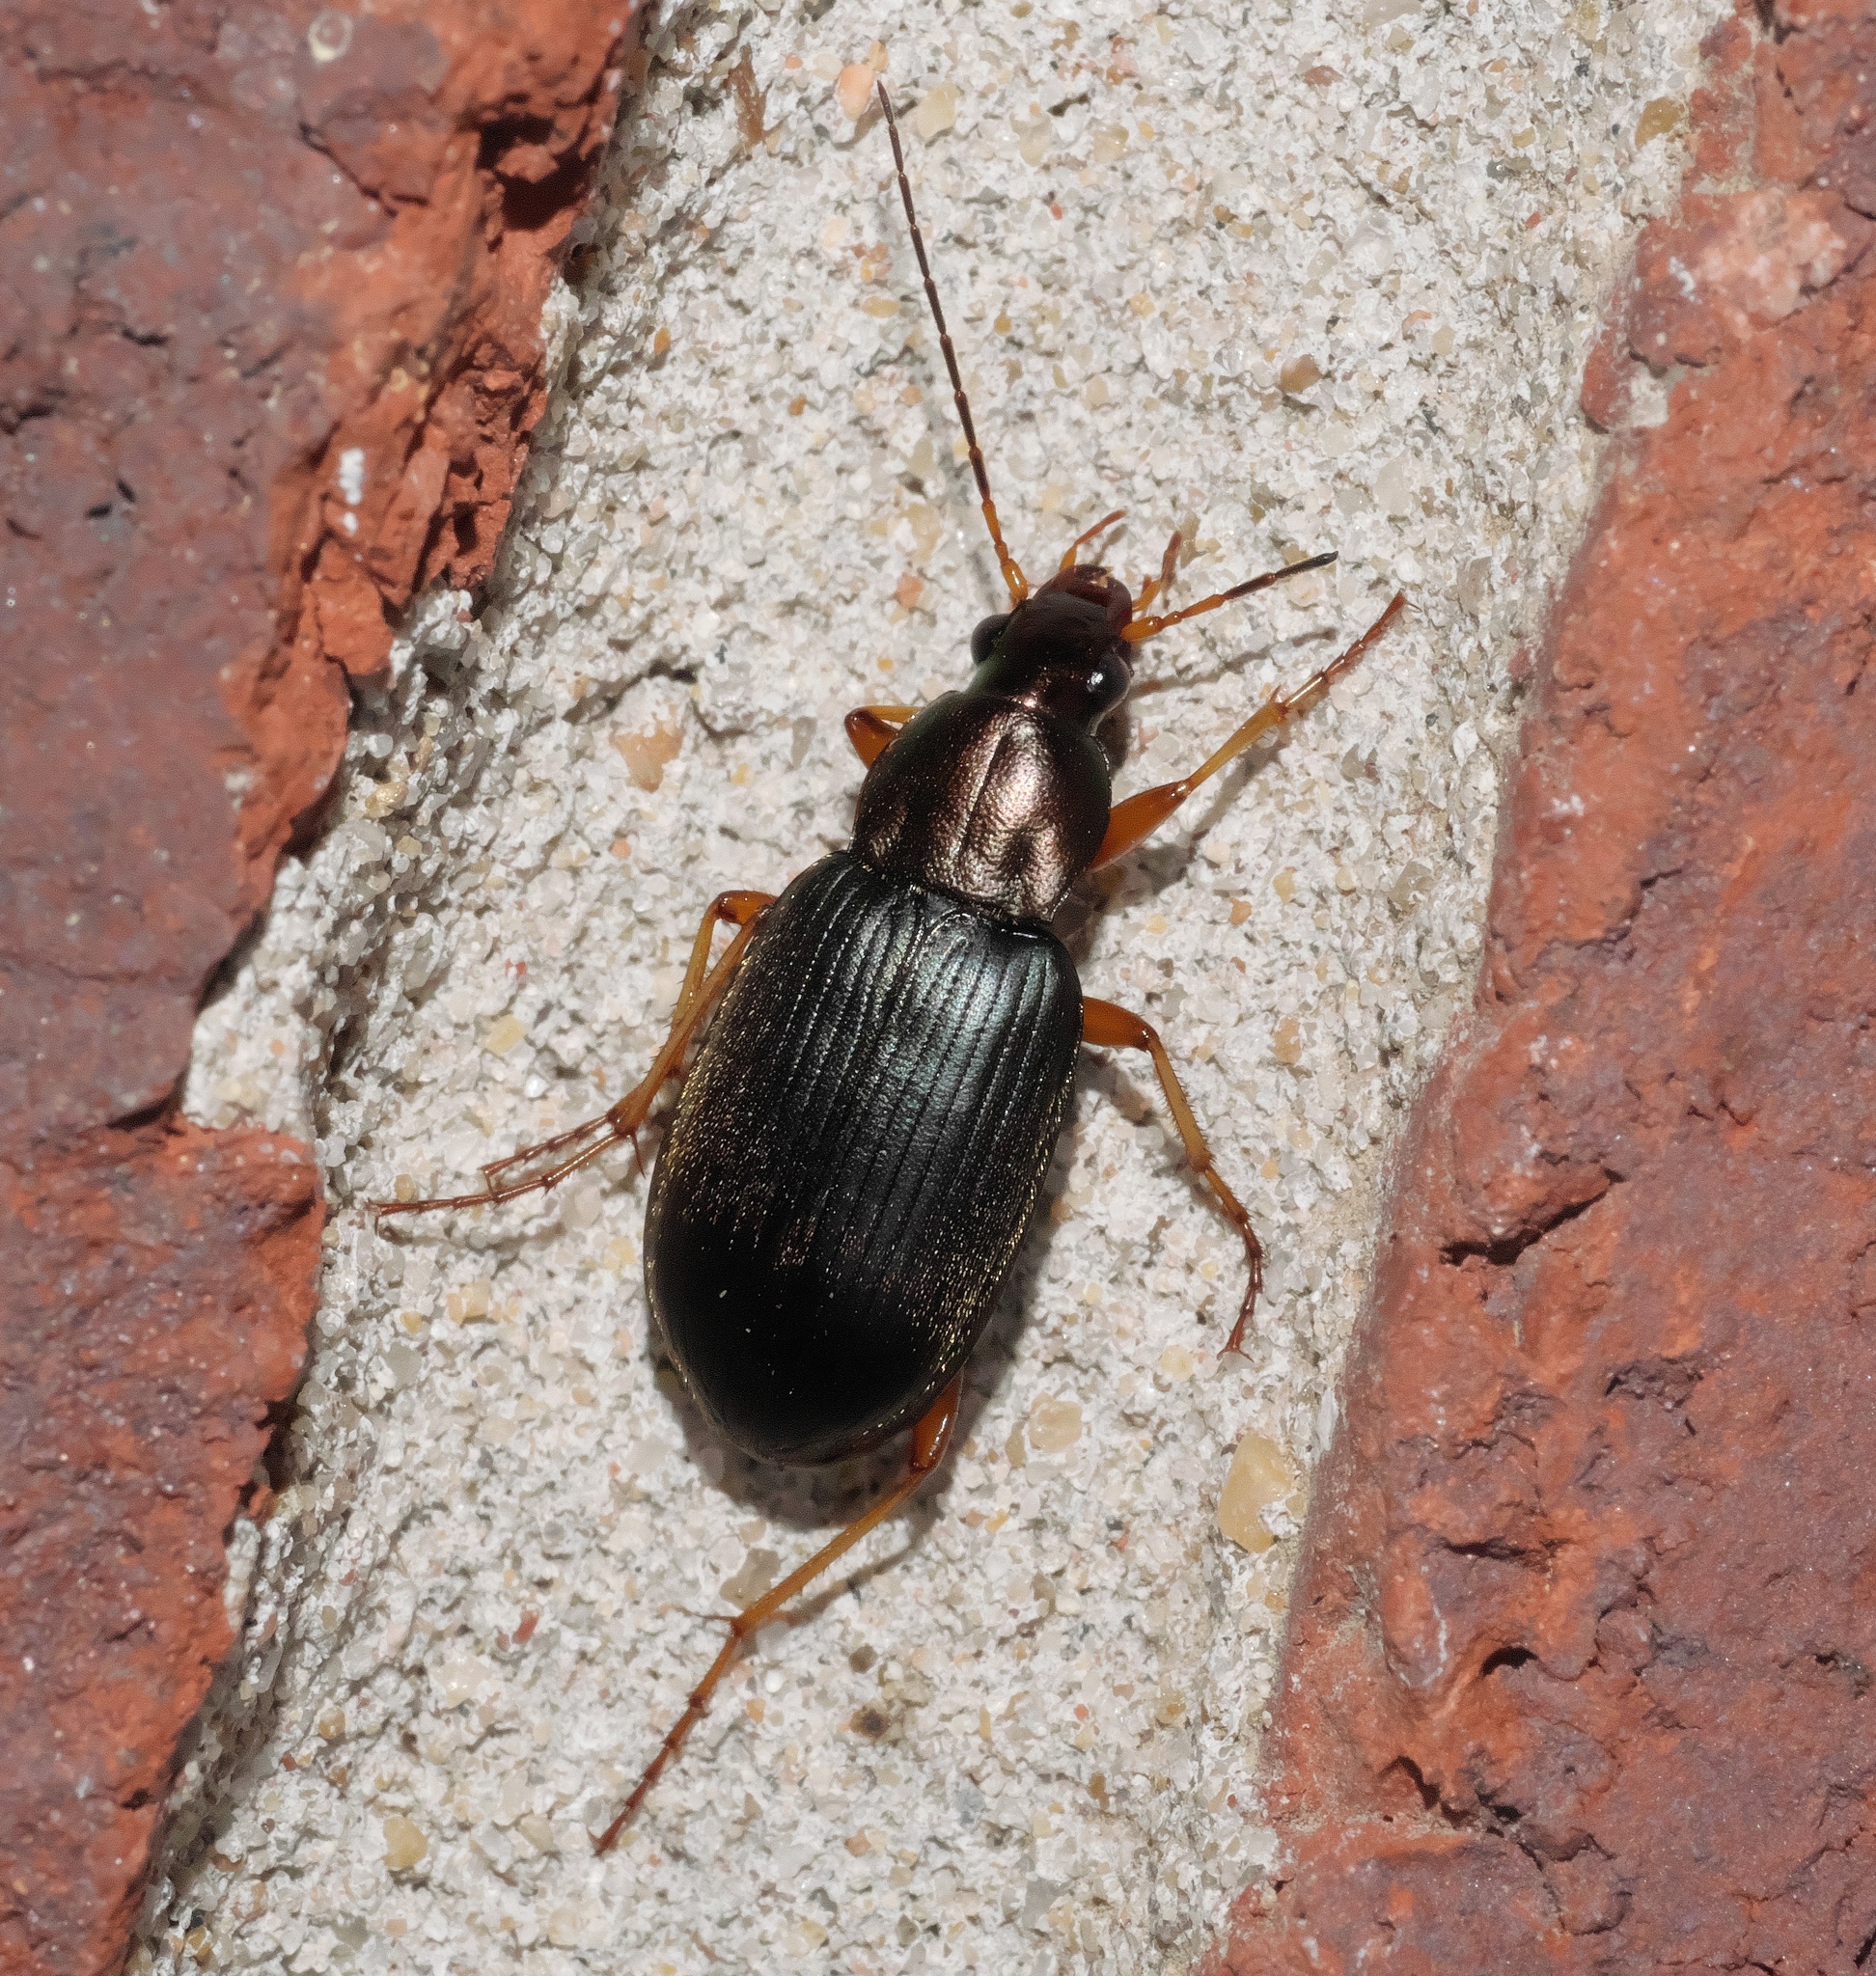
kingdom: Animalia
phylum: Arthropoda
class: Insecta
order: Coleoptera
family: Carabidae
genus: Chlaenius
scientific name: Chlaenius tricolor
